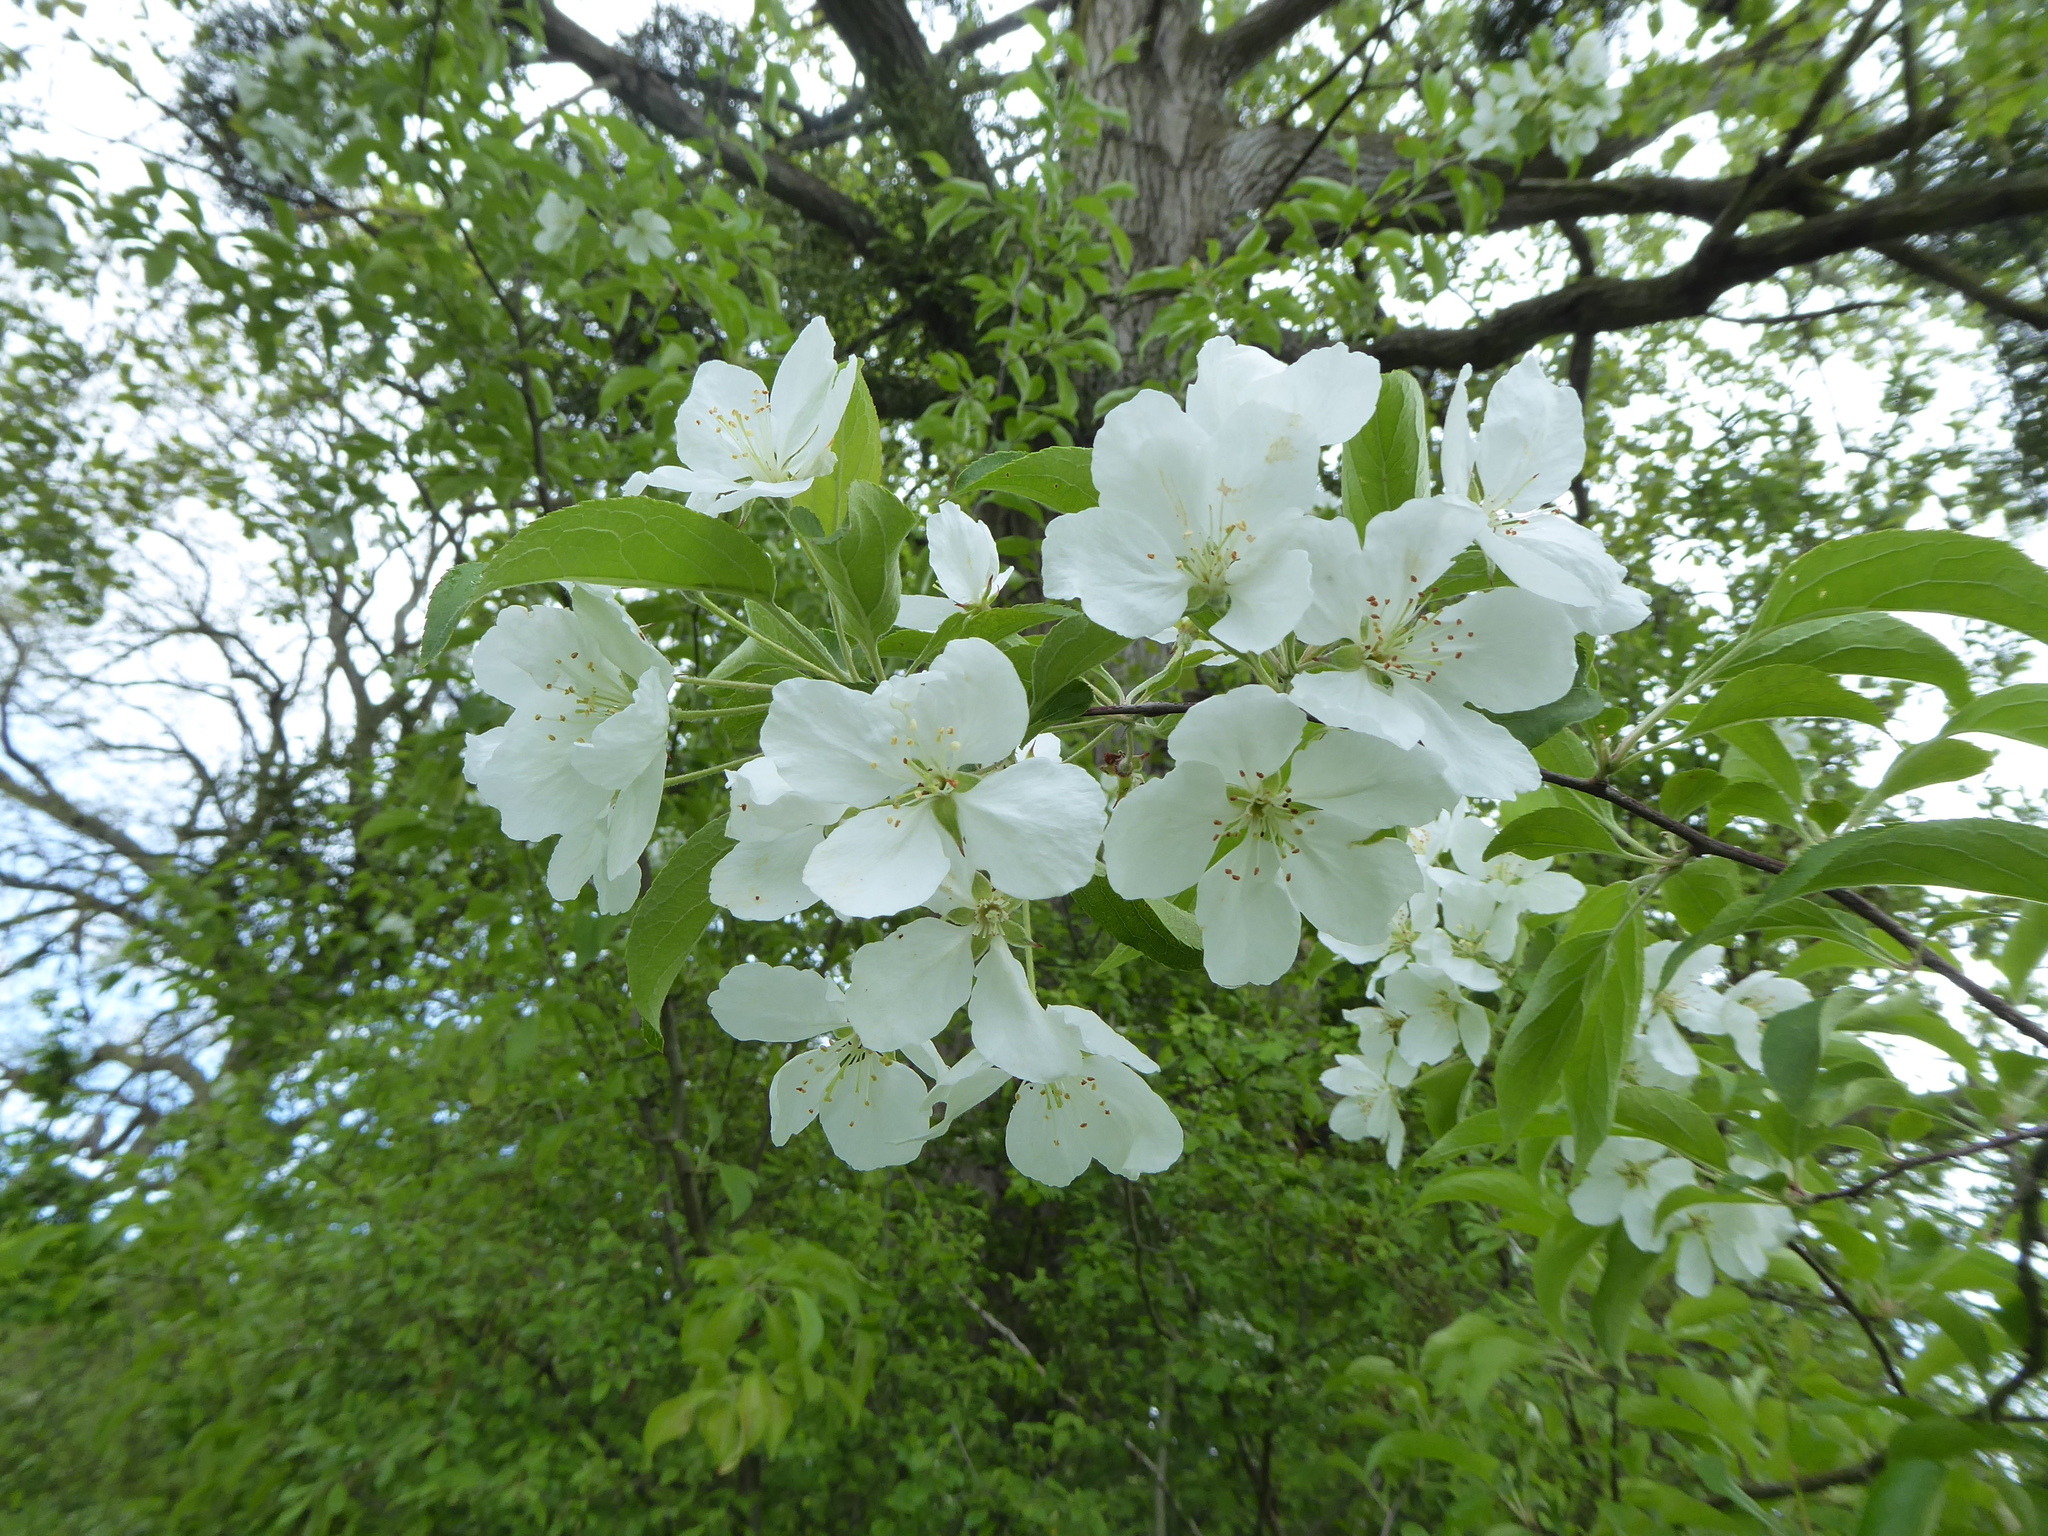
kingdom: Plantae
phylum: Tracheophyta
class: Magnoliopsida
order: Rosales
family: Rosaceae
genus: Malus
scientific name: Malus domestica
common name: Apple
